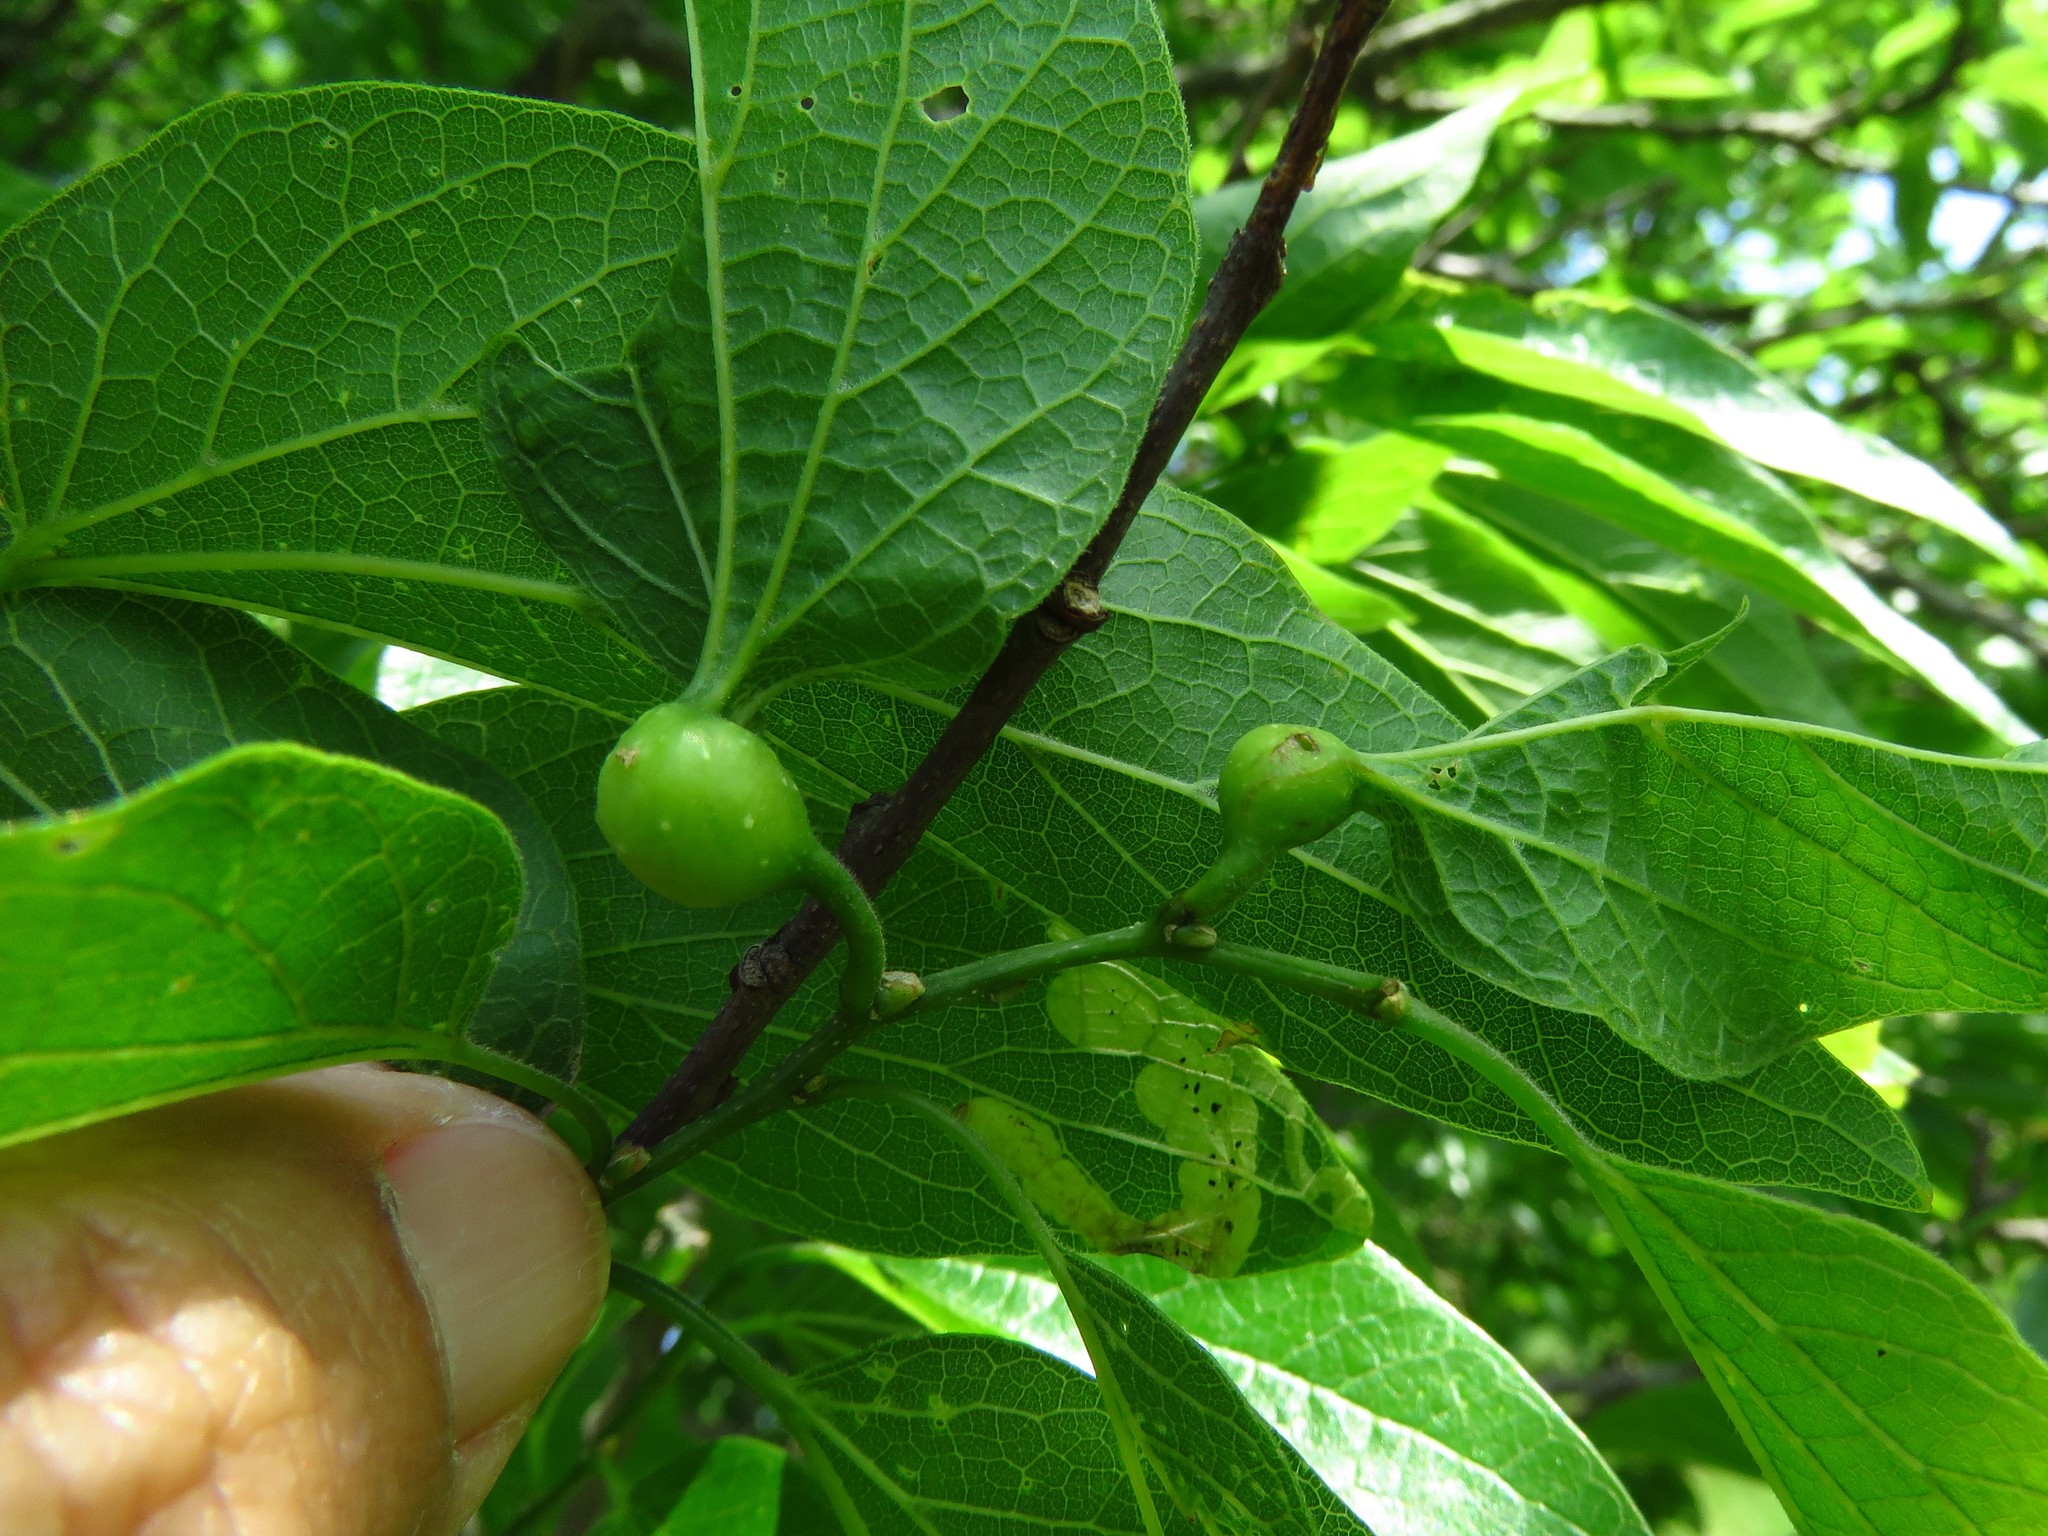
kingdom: Animalia
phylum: Arthropoda
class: Insecta
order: Hemiptera
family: Aphalaridae
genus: Pachypsylla
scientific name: Pachypsylla venusta
